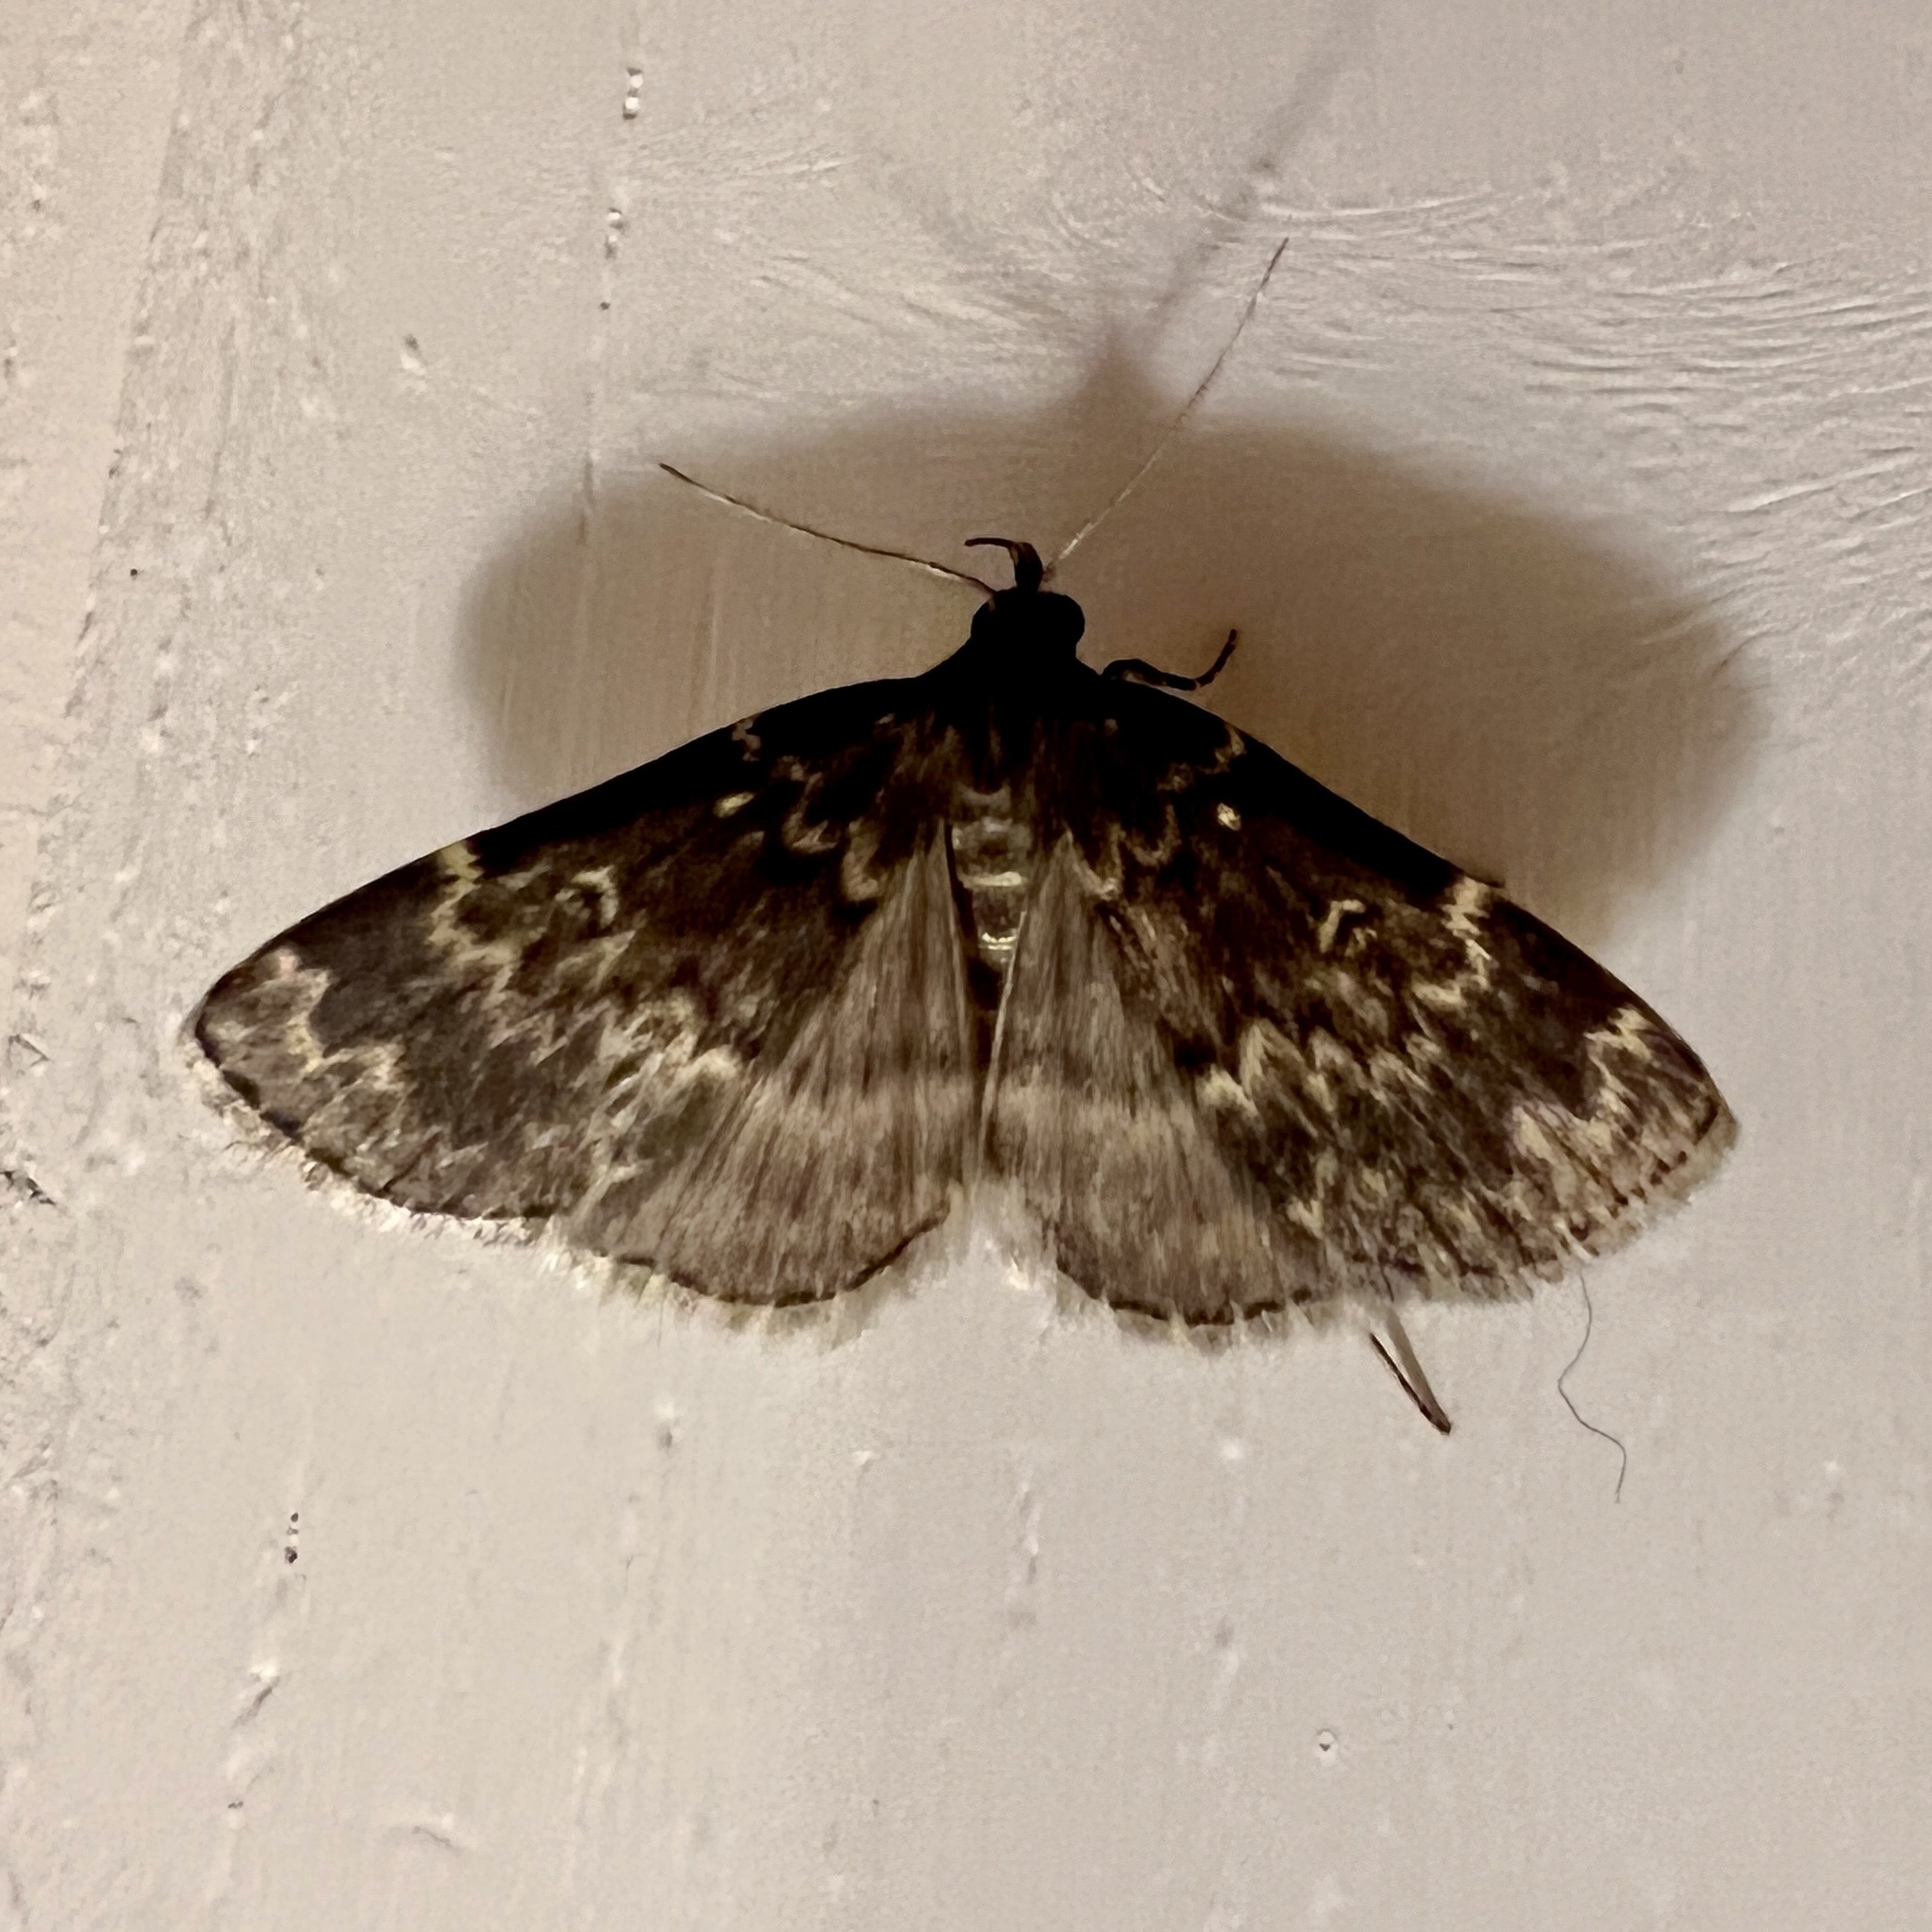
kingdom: Animalia
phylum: Arthropoda
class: Insecta
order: Lepidoptera
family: Erebidae
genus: Idia
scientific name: Idia lubricalis
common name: Twin-striped tabby
